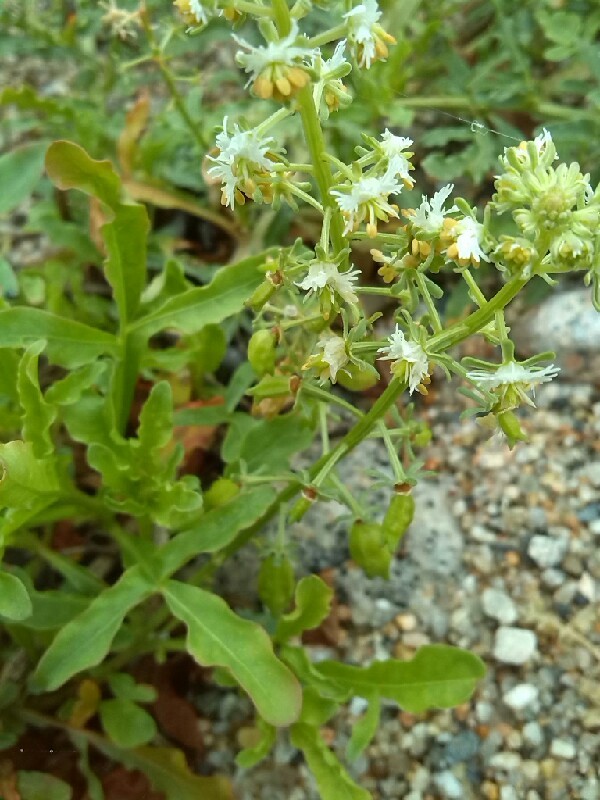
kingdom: Plantae
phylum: Tracheophyta
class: Magnoliopsida
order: Brassicales
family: Resedaceae
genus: Reseda
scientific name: Reseda phyteuma
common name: Corn mignonette
